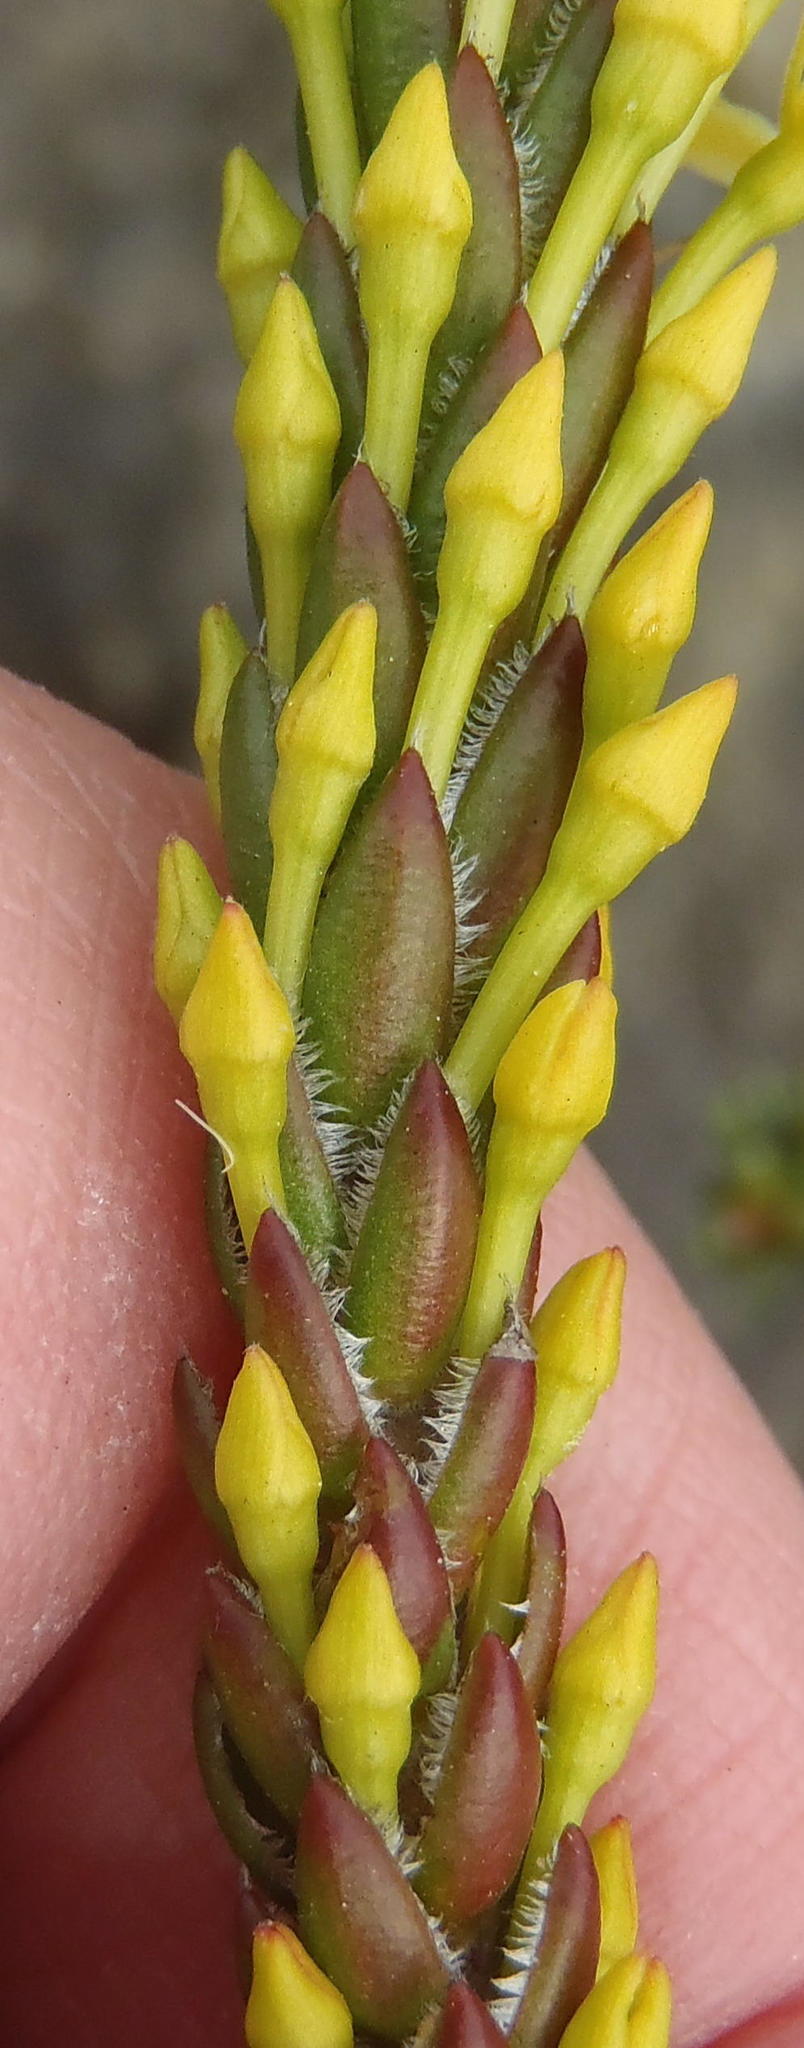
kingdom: Plantae
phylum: Tracheophyta
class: Magnoliopsida
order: Malvales
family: Thymelaeaceae
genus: Struthiola
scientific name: Struthiola rigida
